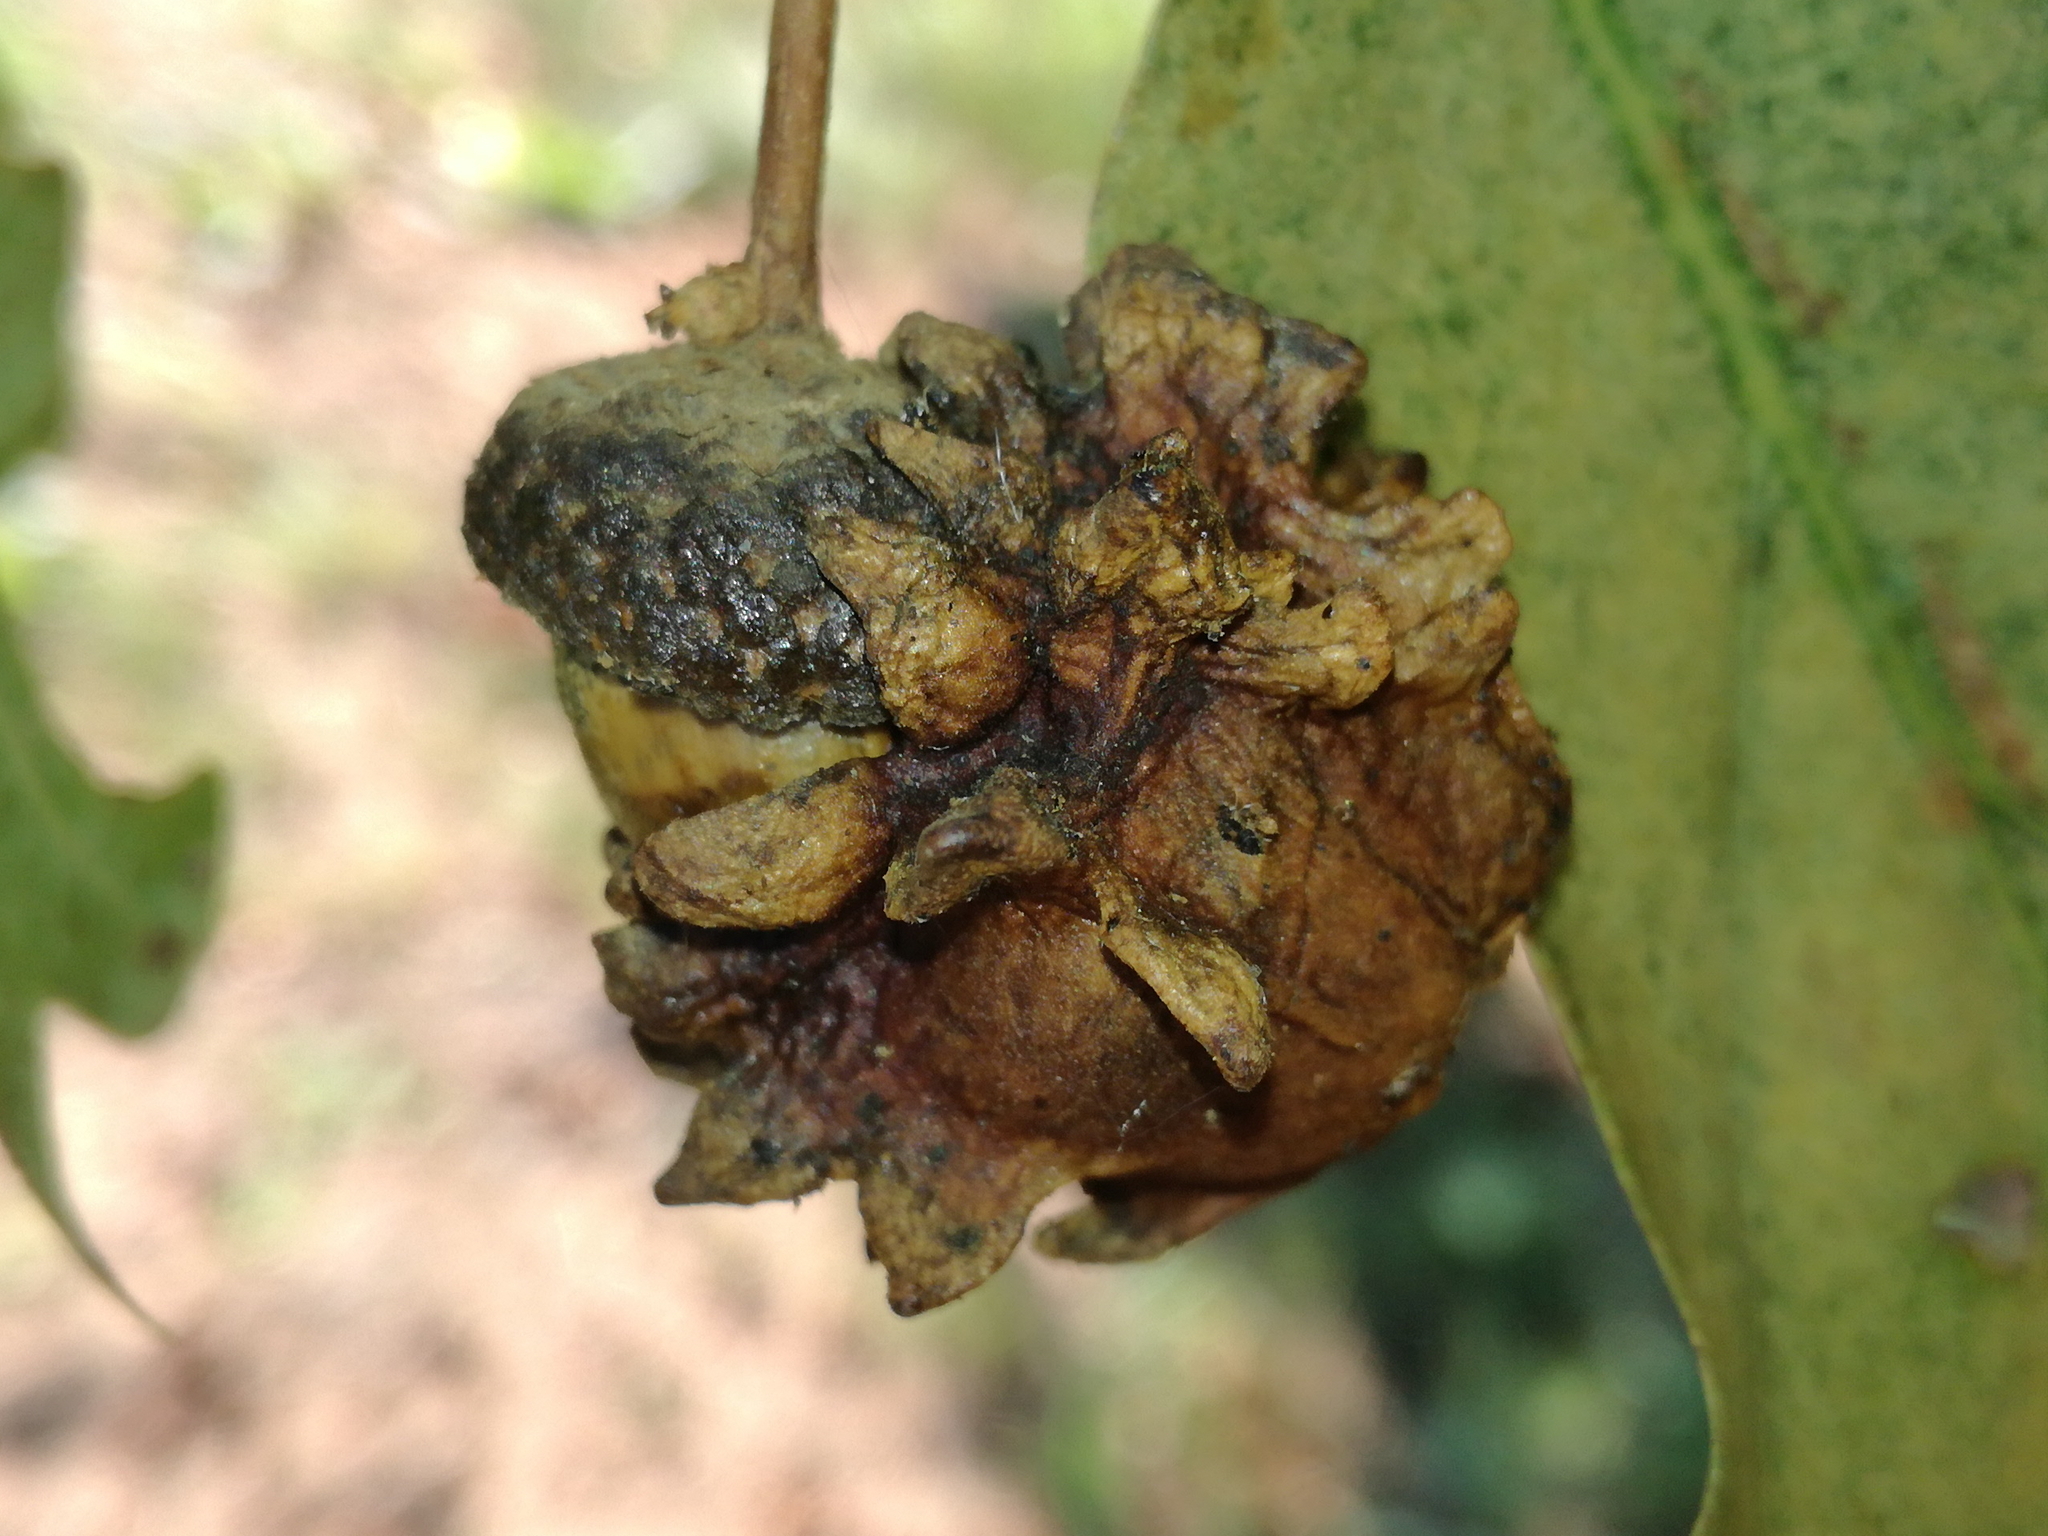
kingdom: Animalia
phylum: Arthropoda
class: Insecta
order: Hymenoptera
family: Cynipidae
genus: Andricus
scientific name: Andricus quercuscalicis
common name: Knopper gall
